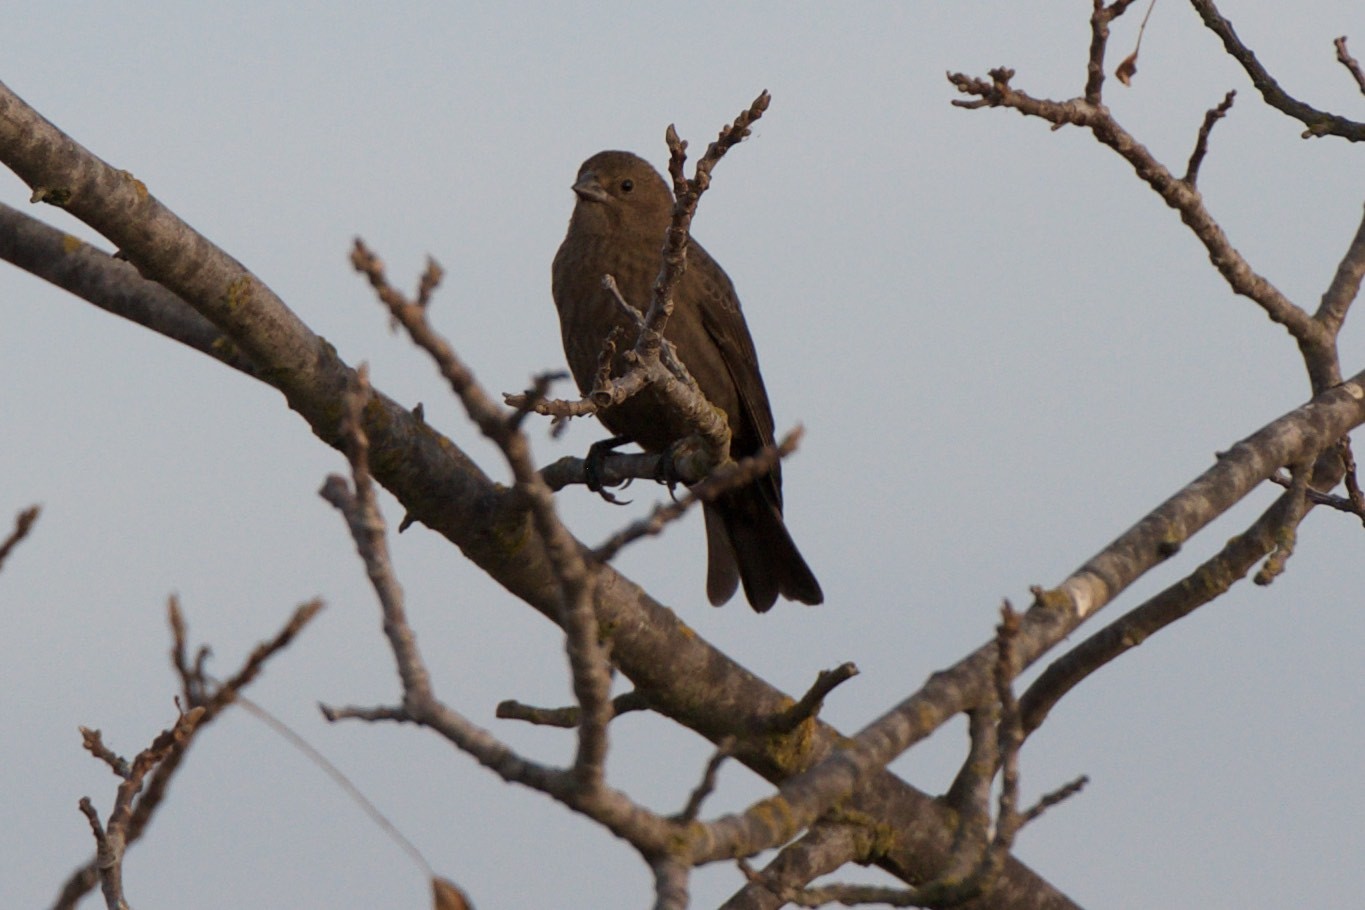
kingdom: Animalia
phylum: Chordata
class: Aves
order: Passeriformes
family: Icteridae
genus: Molothrus
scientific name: Molothrus ater
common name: Brown-headed cowbird
